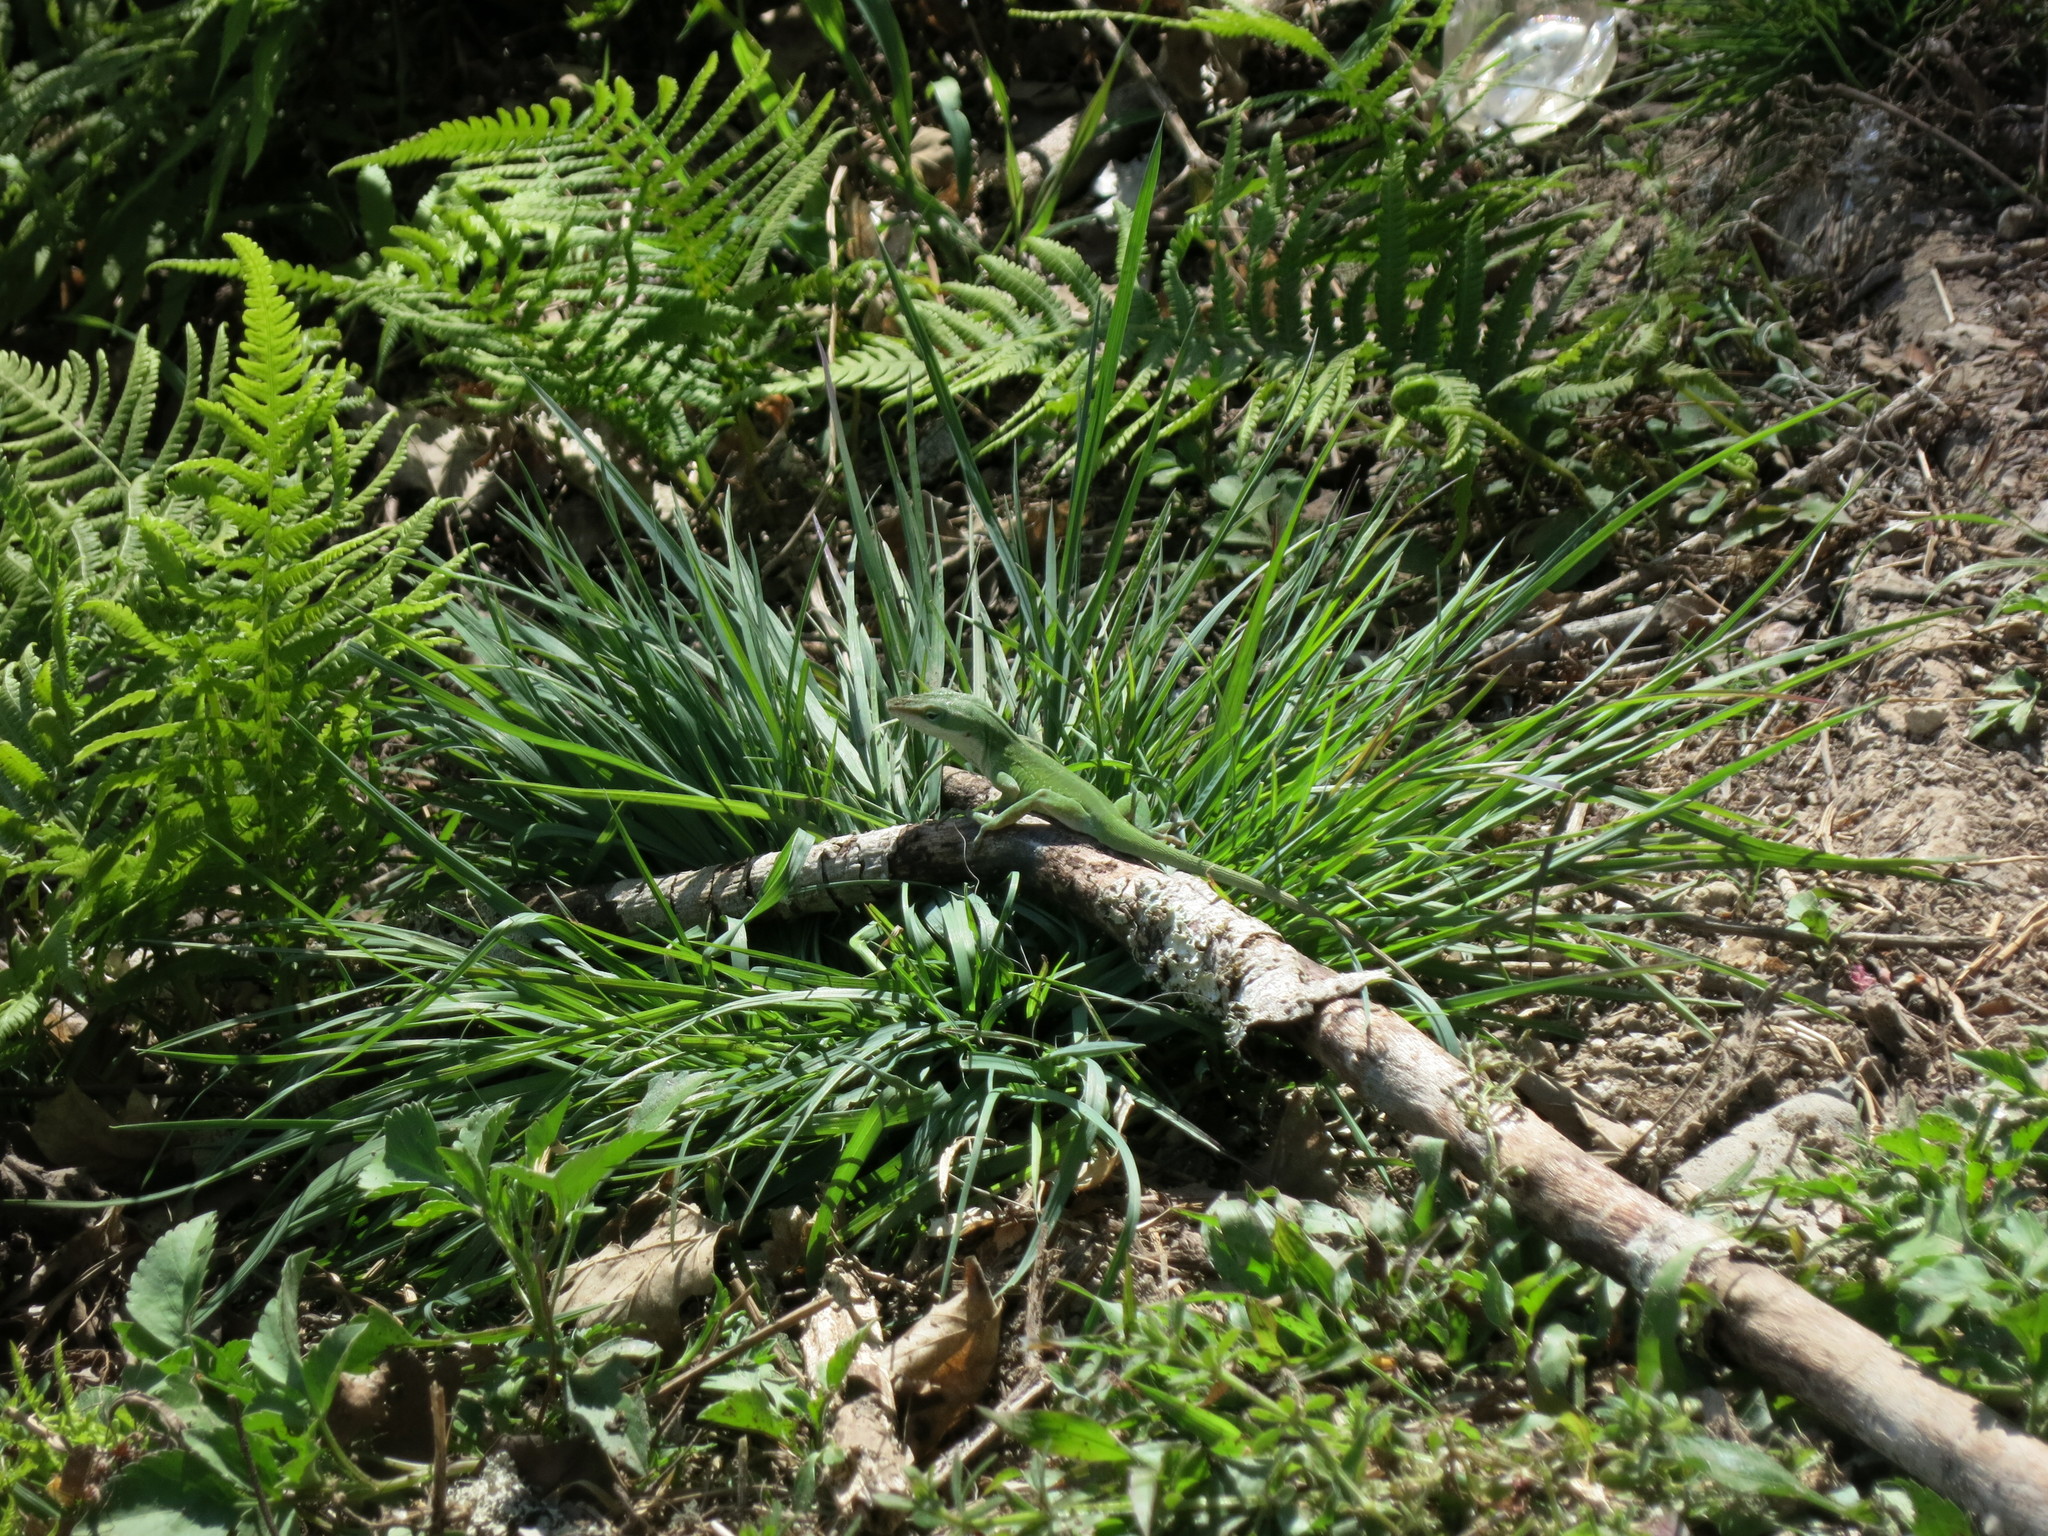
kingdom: Animalia
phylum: Chordata
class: Squamata
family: Dactyloidae
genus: Anolis
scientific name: Anolis carolinensis
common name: Green anole
